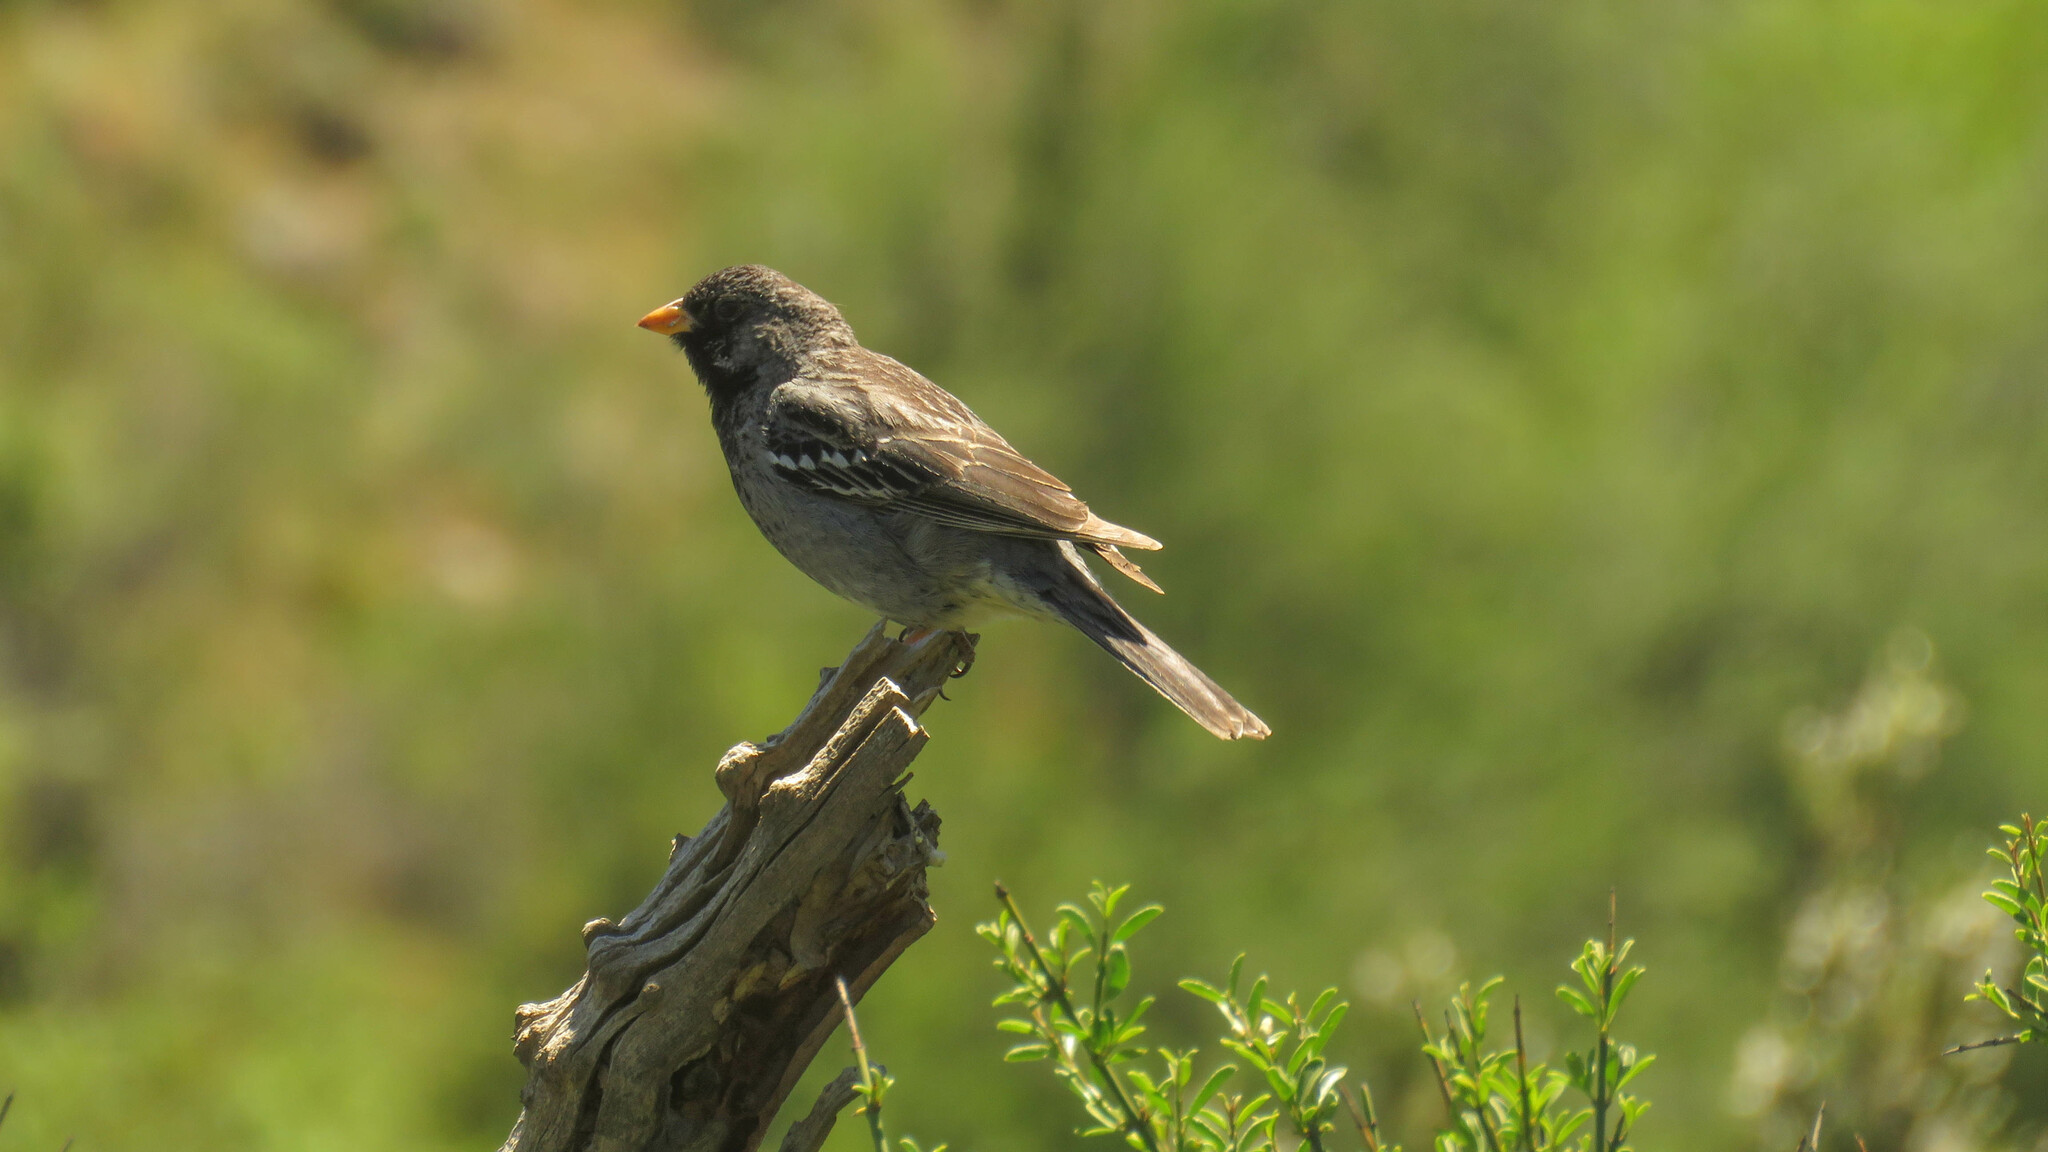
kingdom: Animalia
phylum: Chordata
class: Aves
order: Passeriformes
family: Thraupidae
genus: Rhopospina
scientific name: Rhopospina fruticeti
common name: Mourning sierra finch
